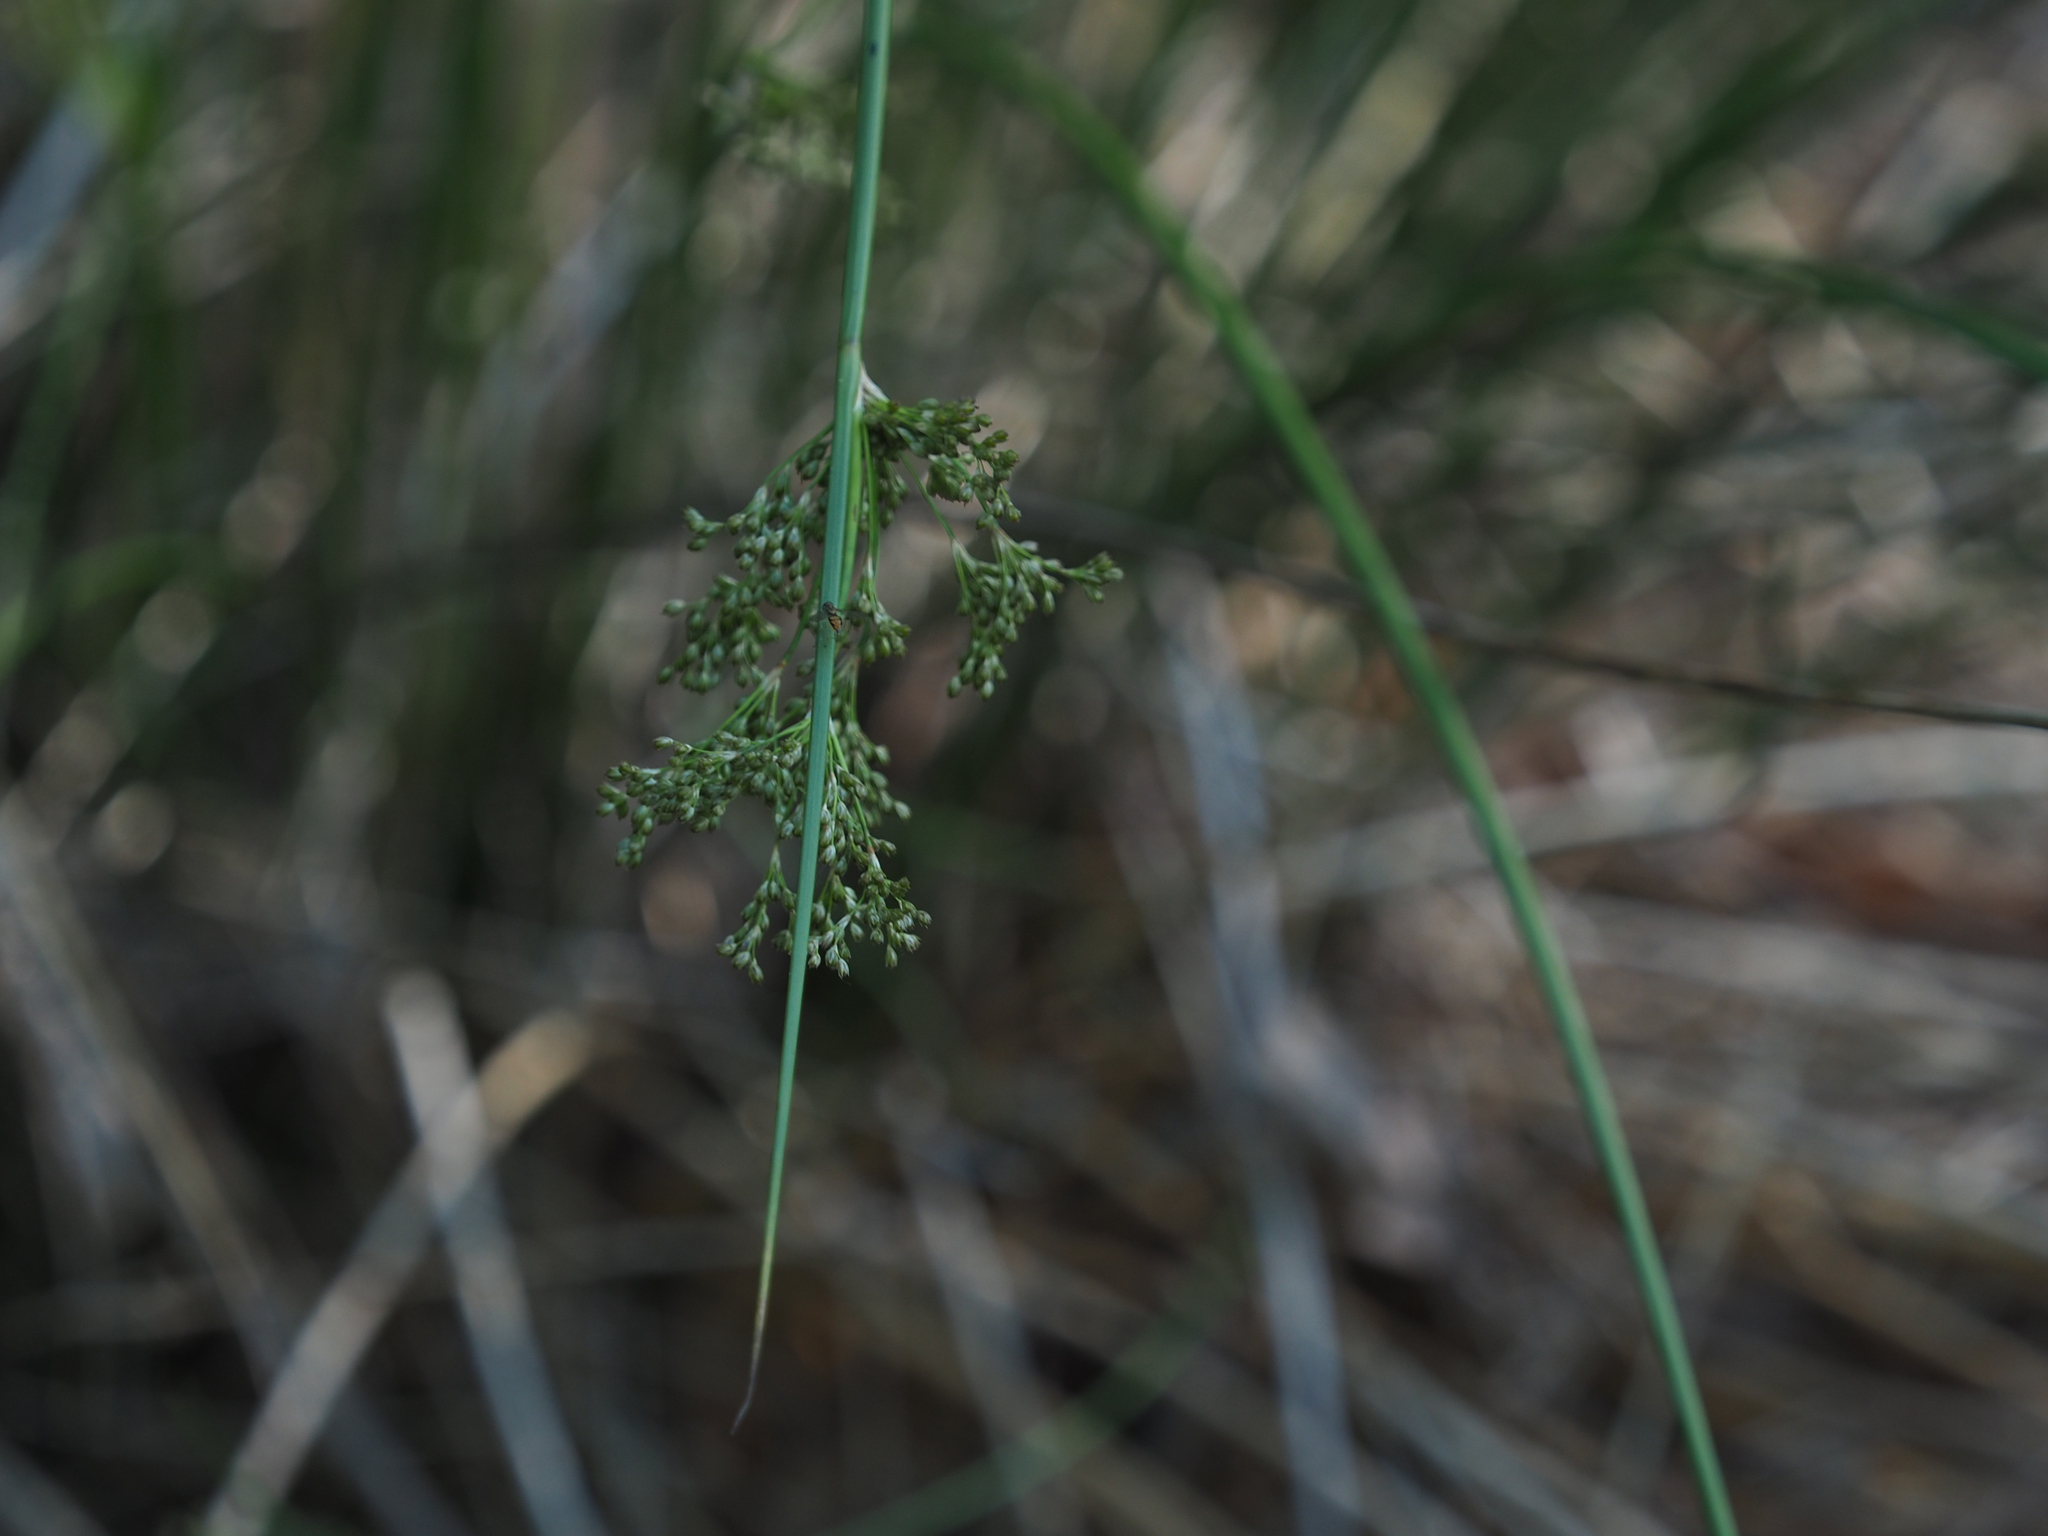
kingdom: Plantae
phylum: Tracheophyta
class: Liliopsida
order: Poales
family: Juncaceae
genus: Juncus
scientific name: Juncus effusus
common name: Soft rush
